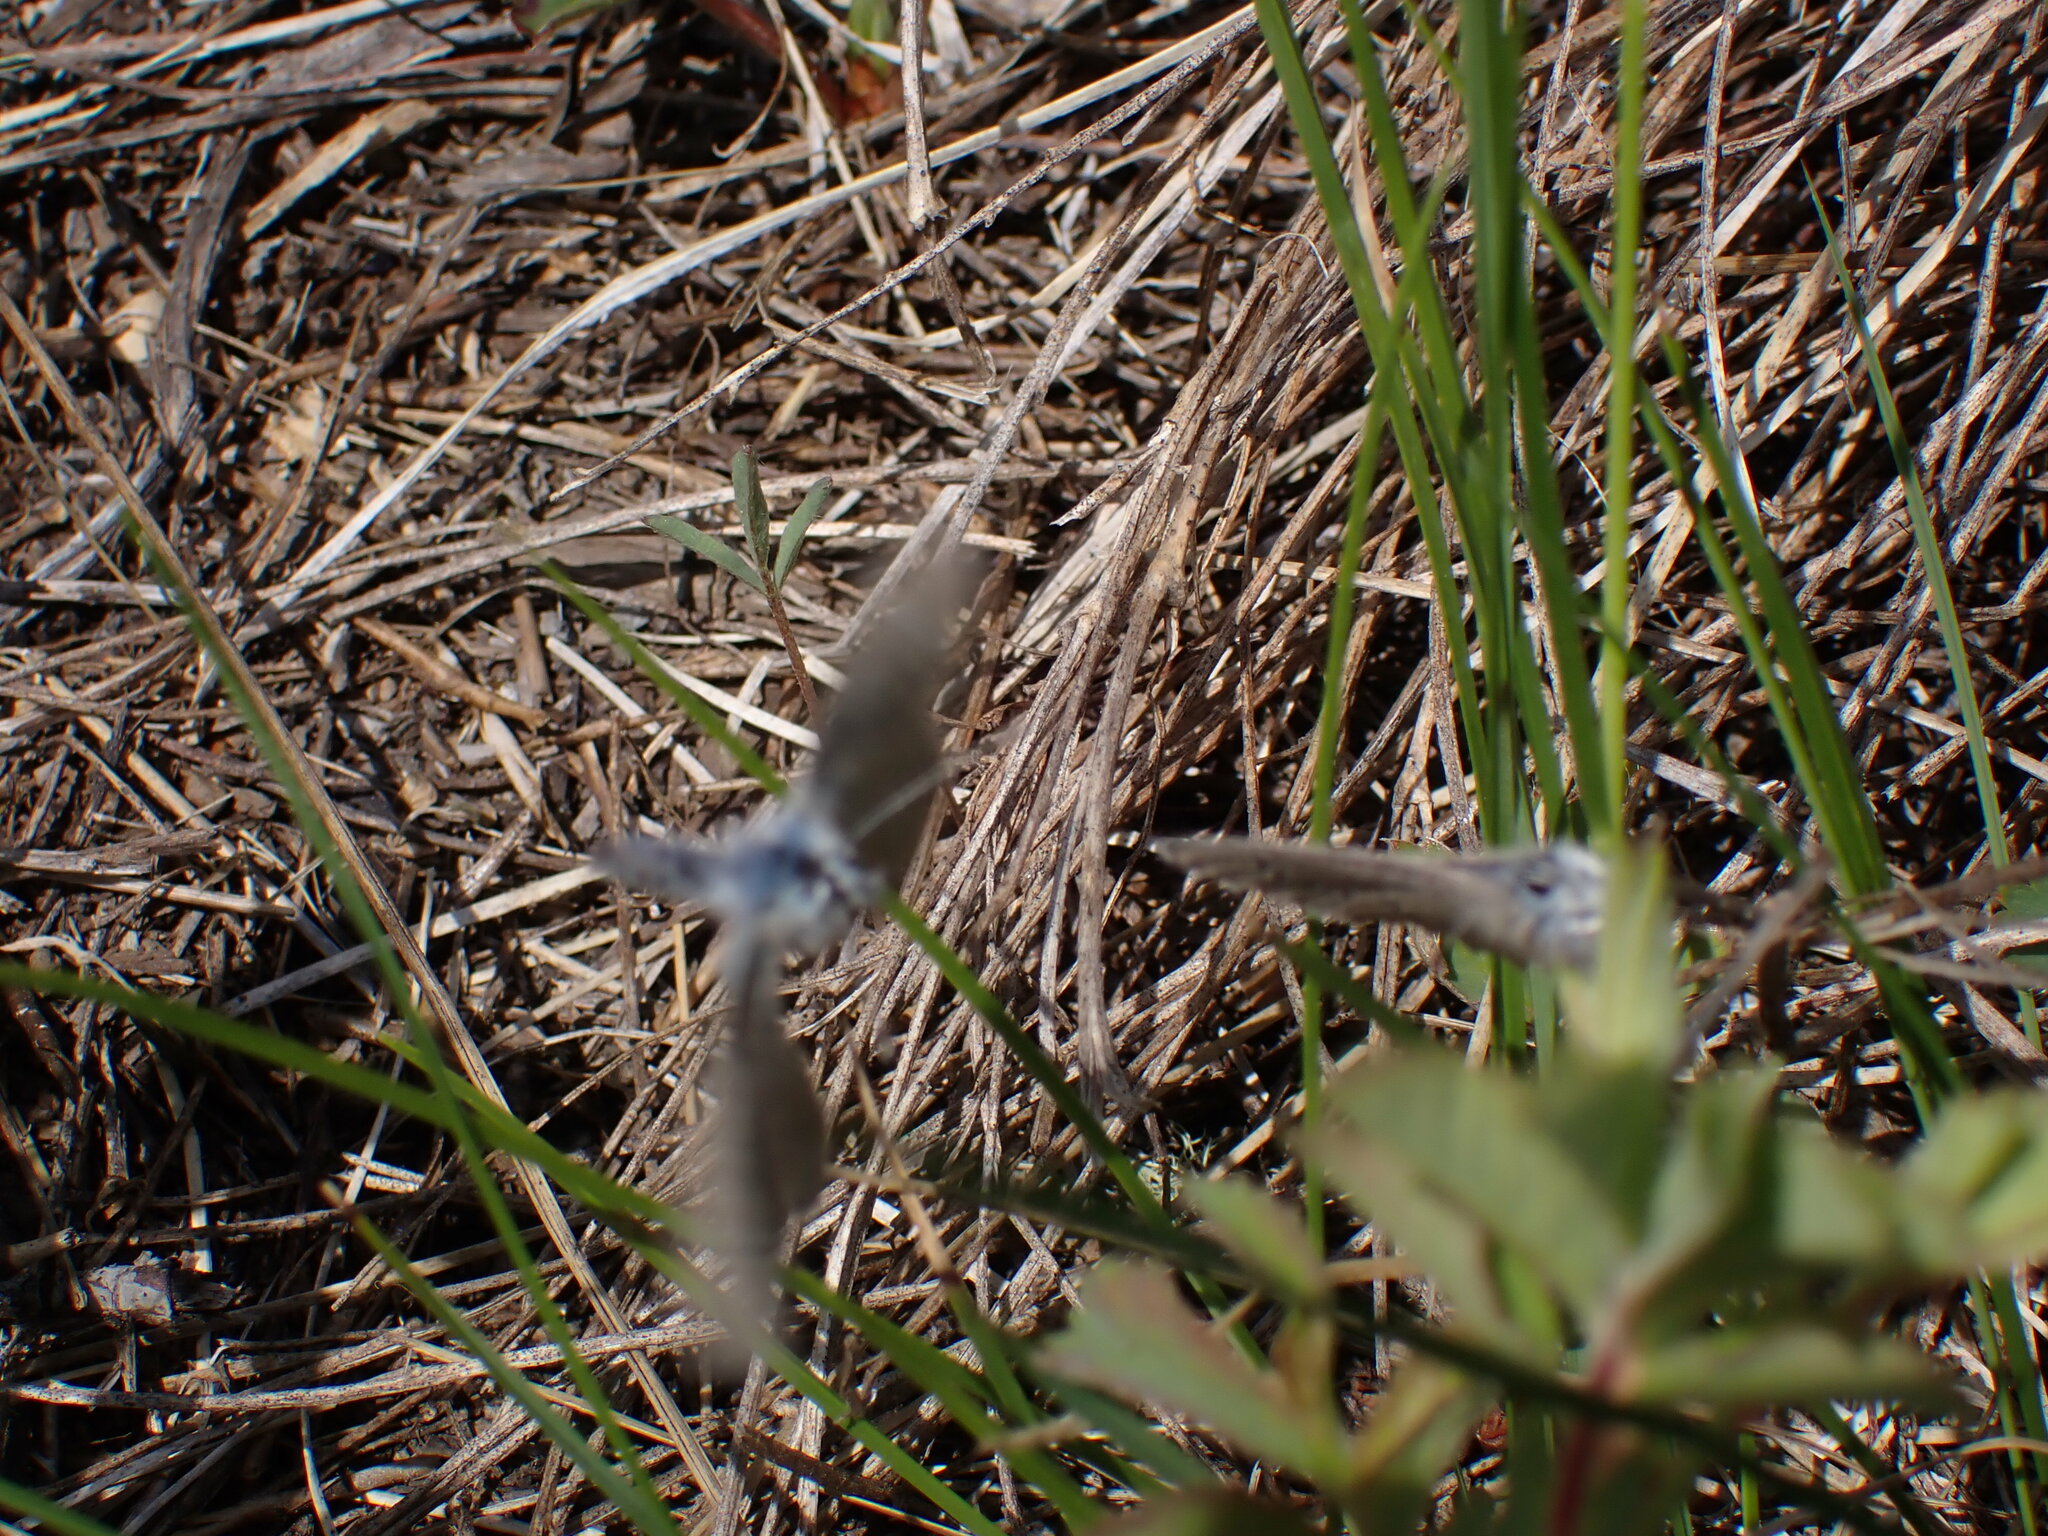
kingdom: Animalia
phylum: Arthropoda
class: Insecta
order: Lepidoptera
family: Lycaenidae
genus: Glaucopsyche
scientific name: Glaucopsyche lygdamus
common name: Silvery blue
